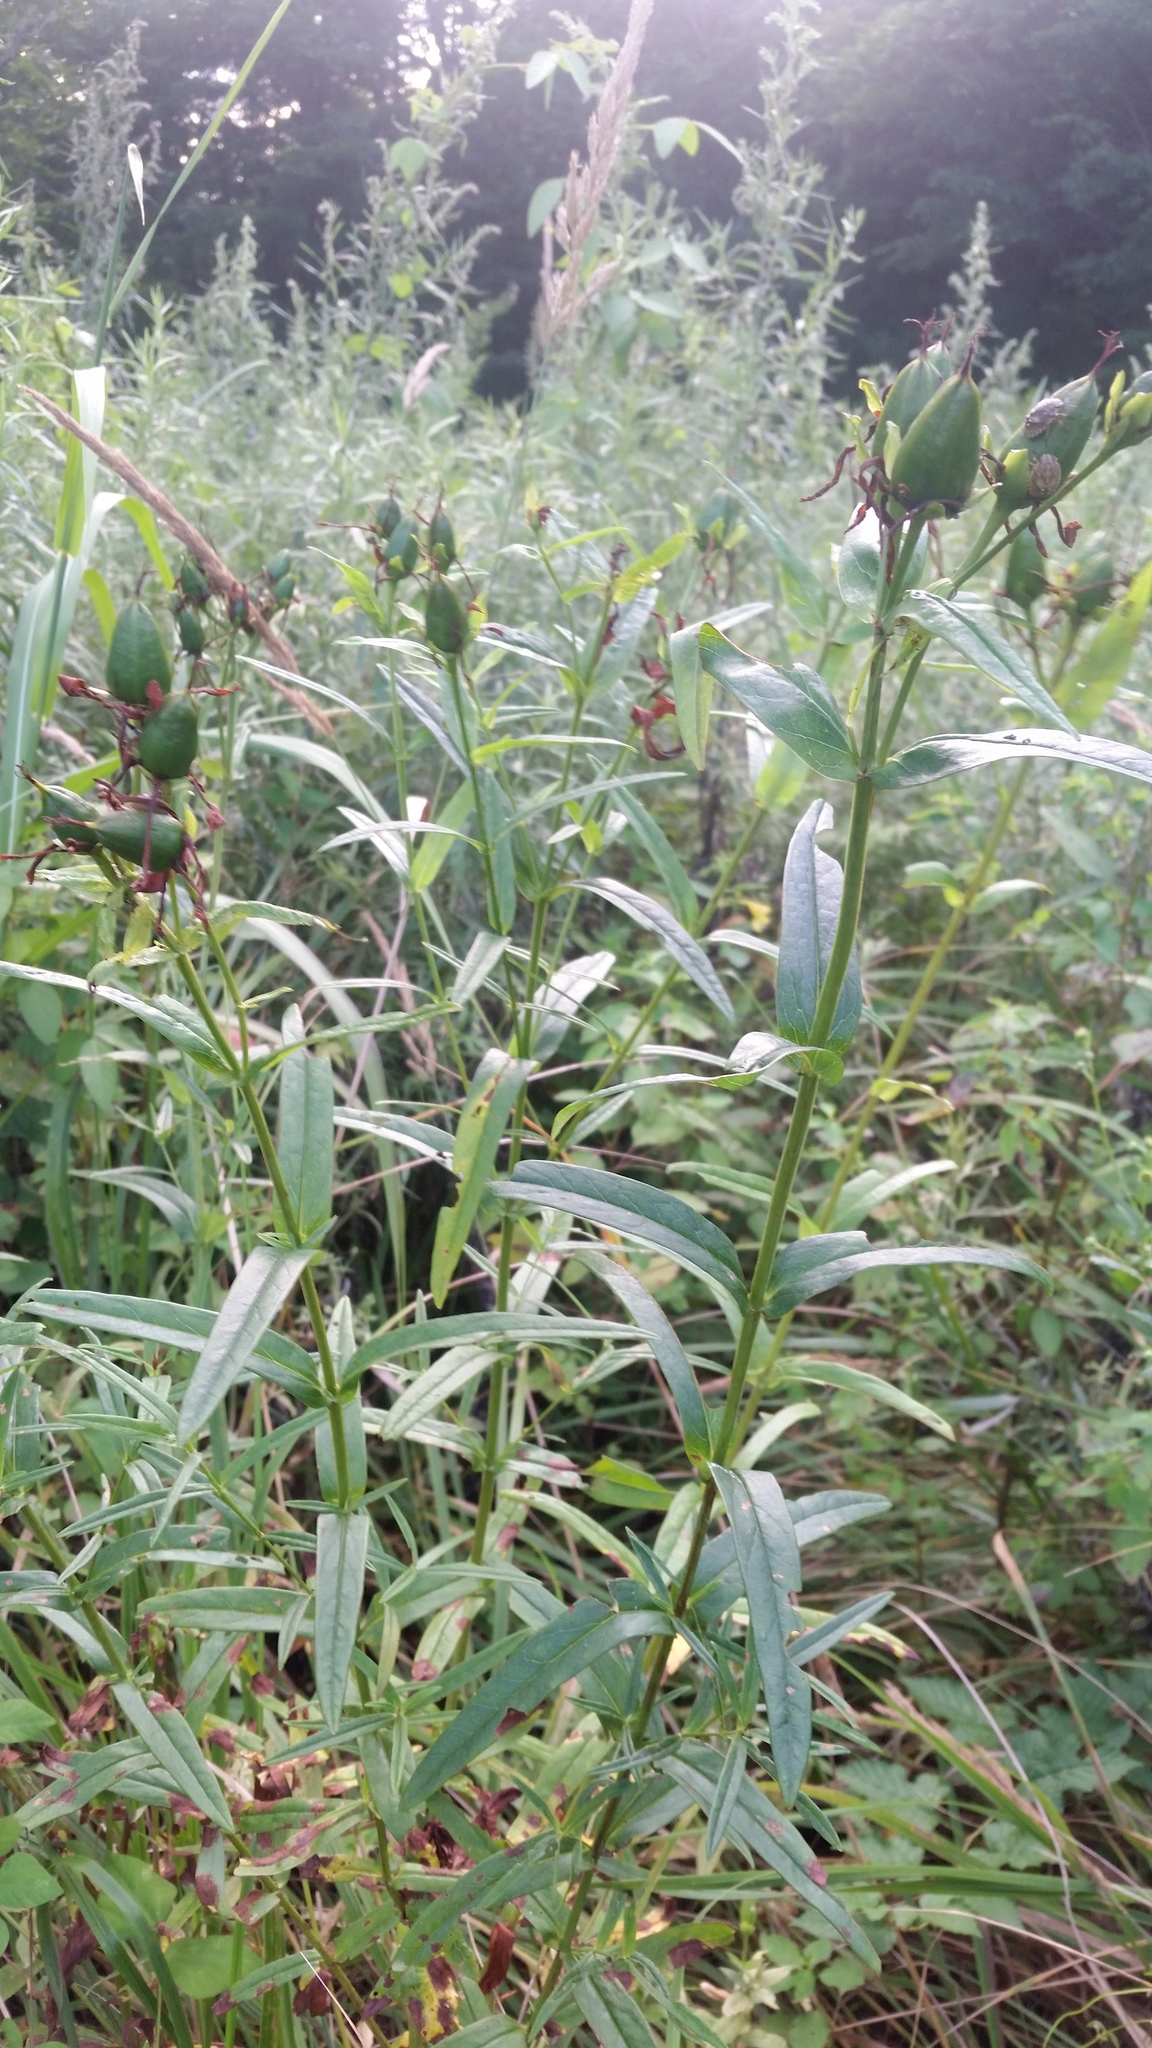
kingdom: Plantae
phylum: Tracheophyta
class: Magnoliopsida
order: Malpighiales
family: Hypericaceae
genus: Hypericum
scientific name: Hypericum ascyron
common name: Giant st. john's-wort
